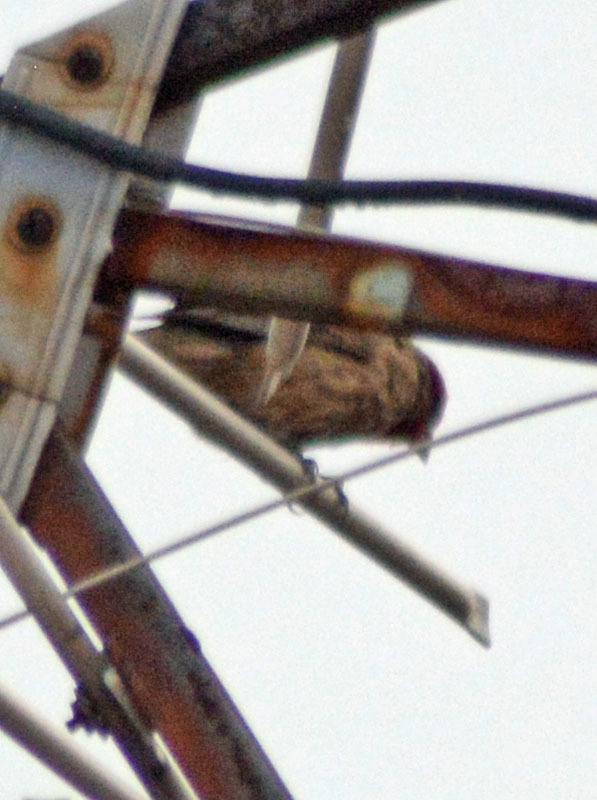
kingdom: Animalia
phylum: Chordata
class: Aves
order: Passeriformes
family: Fringillidae
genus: Haemorhous
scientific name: Haemorhous mexicanus
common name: House finch
